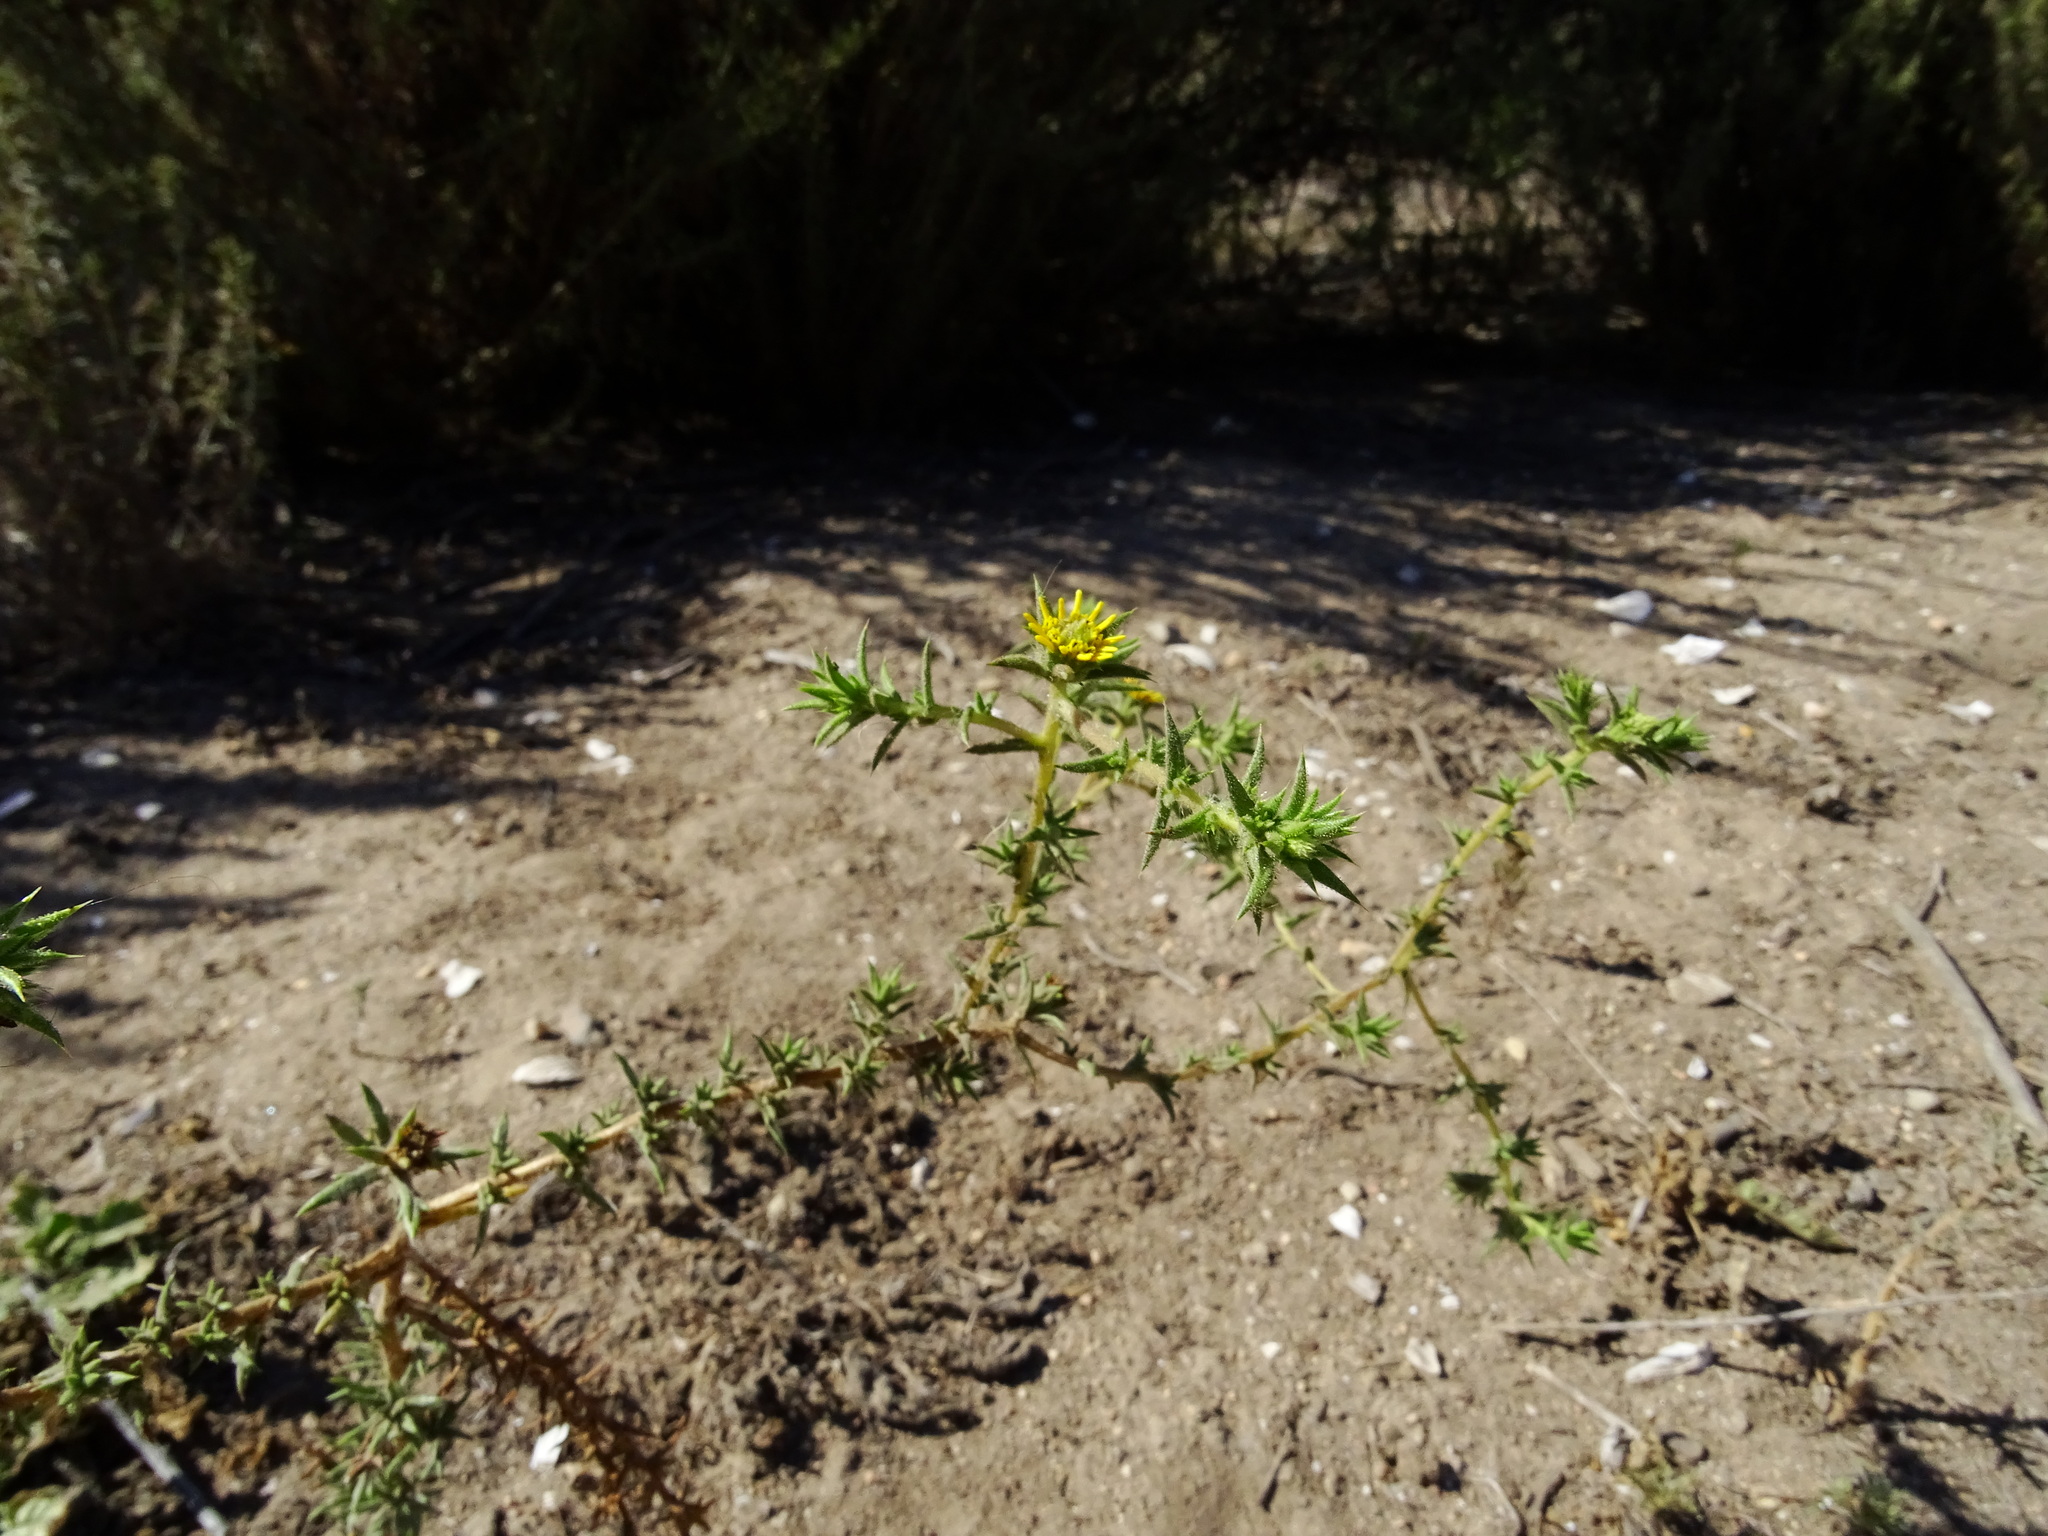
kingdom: Plantae
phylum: Tracheophyta
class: Magnoliopsida
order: Asterales
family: Asteraceae
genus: Centromadia
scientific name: Centromadia parryi
